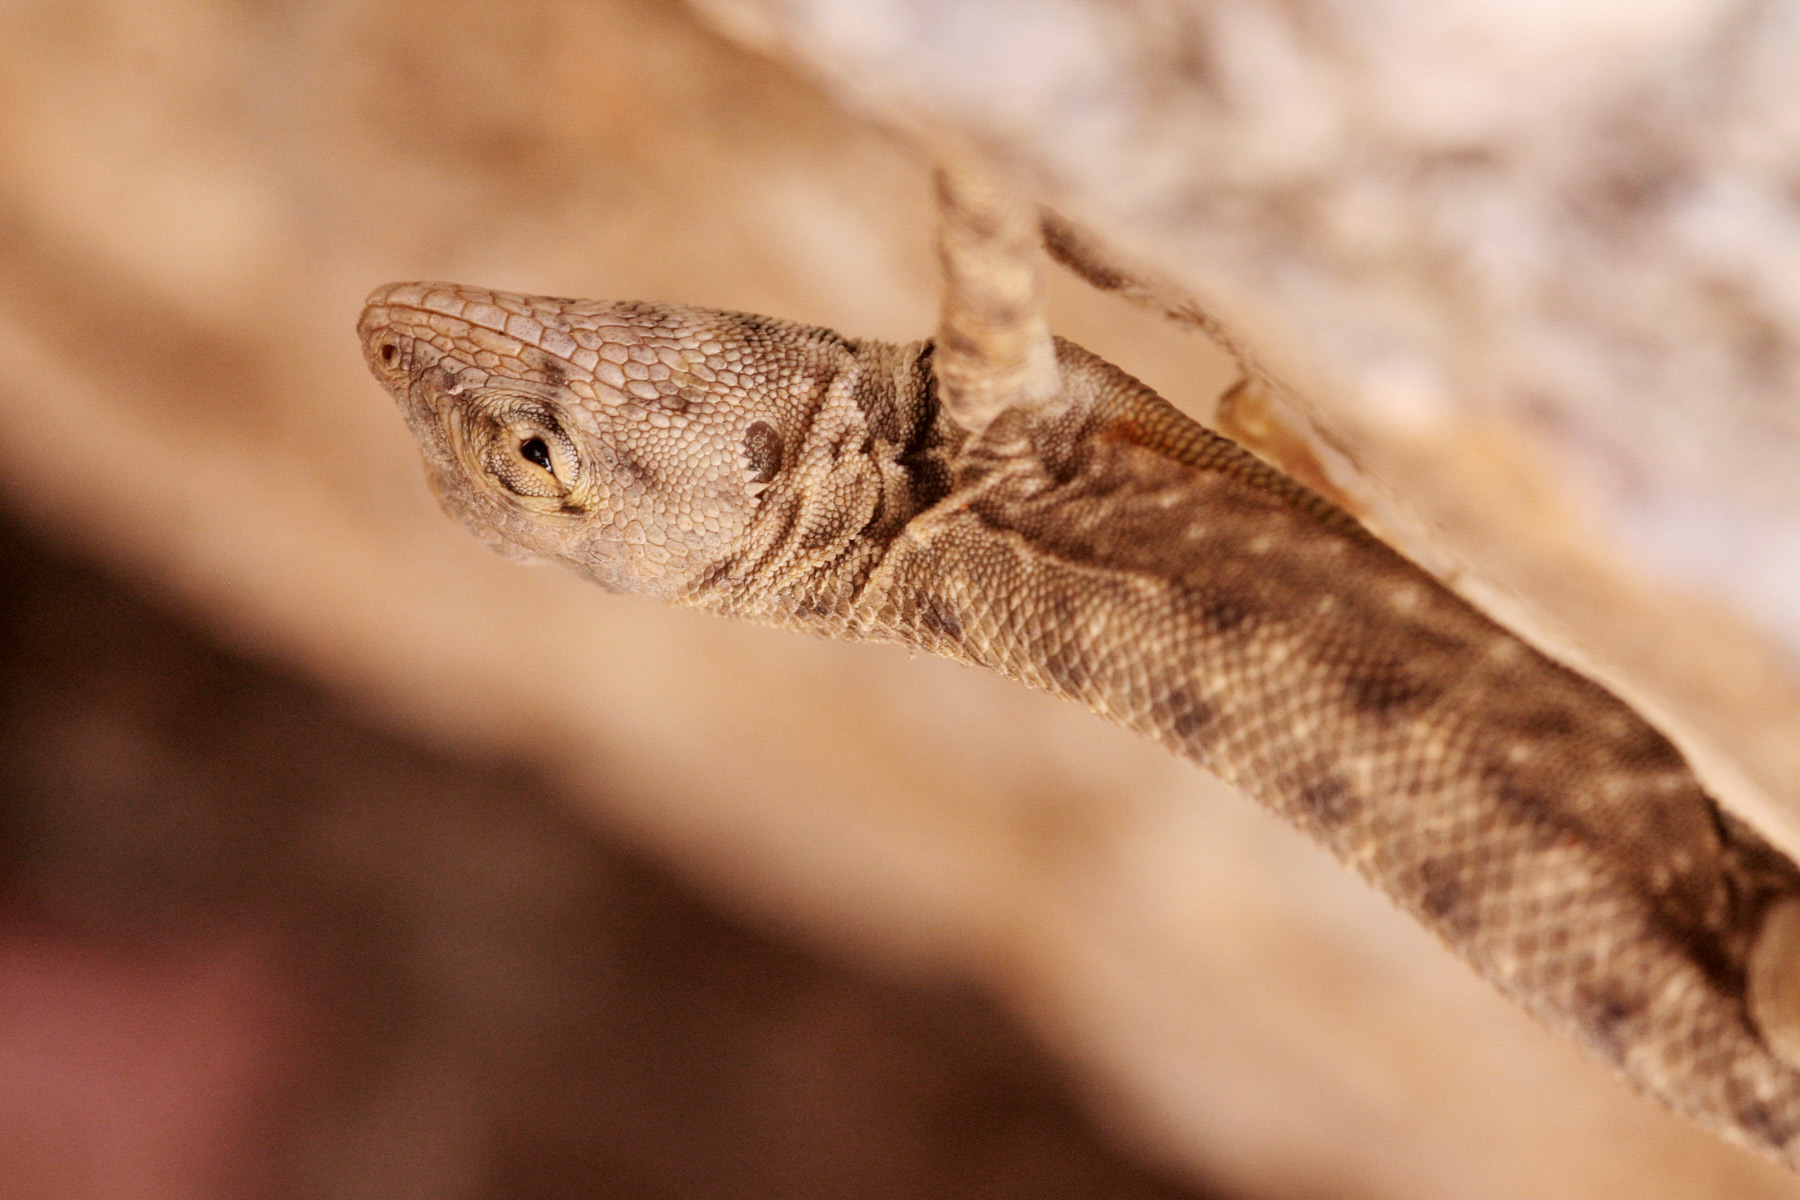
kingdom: Animalia
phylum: Chordata
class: Squamata
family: Phrynosomatidae
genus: Sceloporus
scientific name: Sceloporus merriami
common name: Canyon lizard
